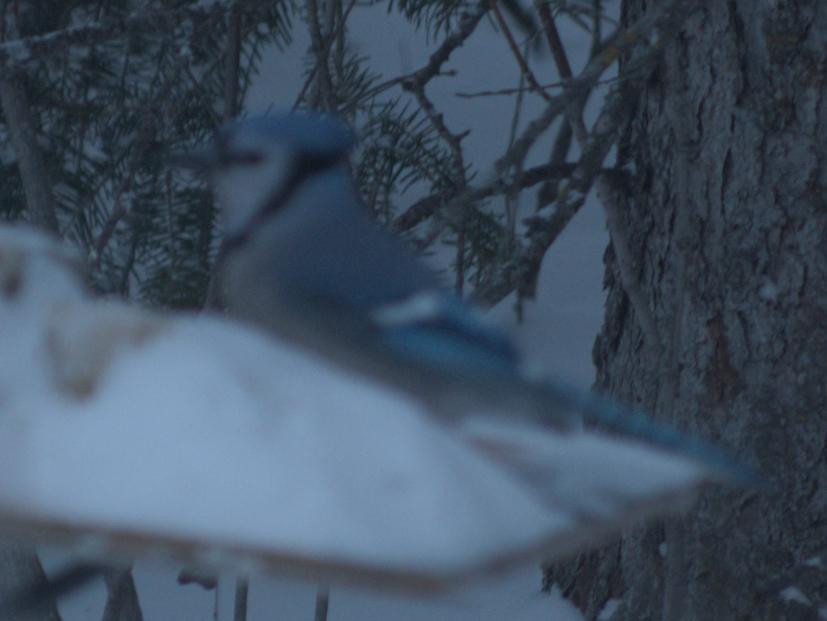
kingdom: Animalia
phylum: Chordata
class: Aves
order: Passeriformes
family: Corvidae
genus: Cyanocitta
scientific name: Cyanocitta cristata
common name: Blue jay
